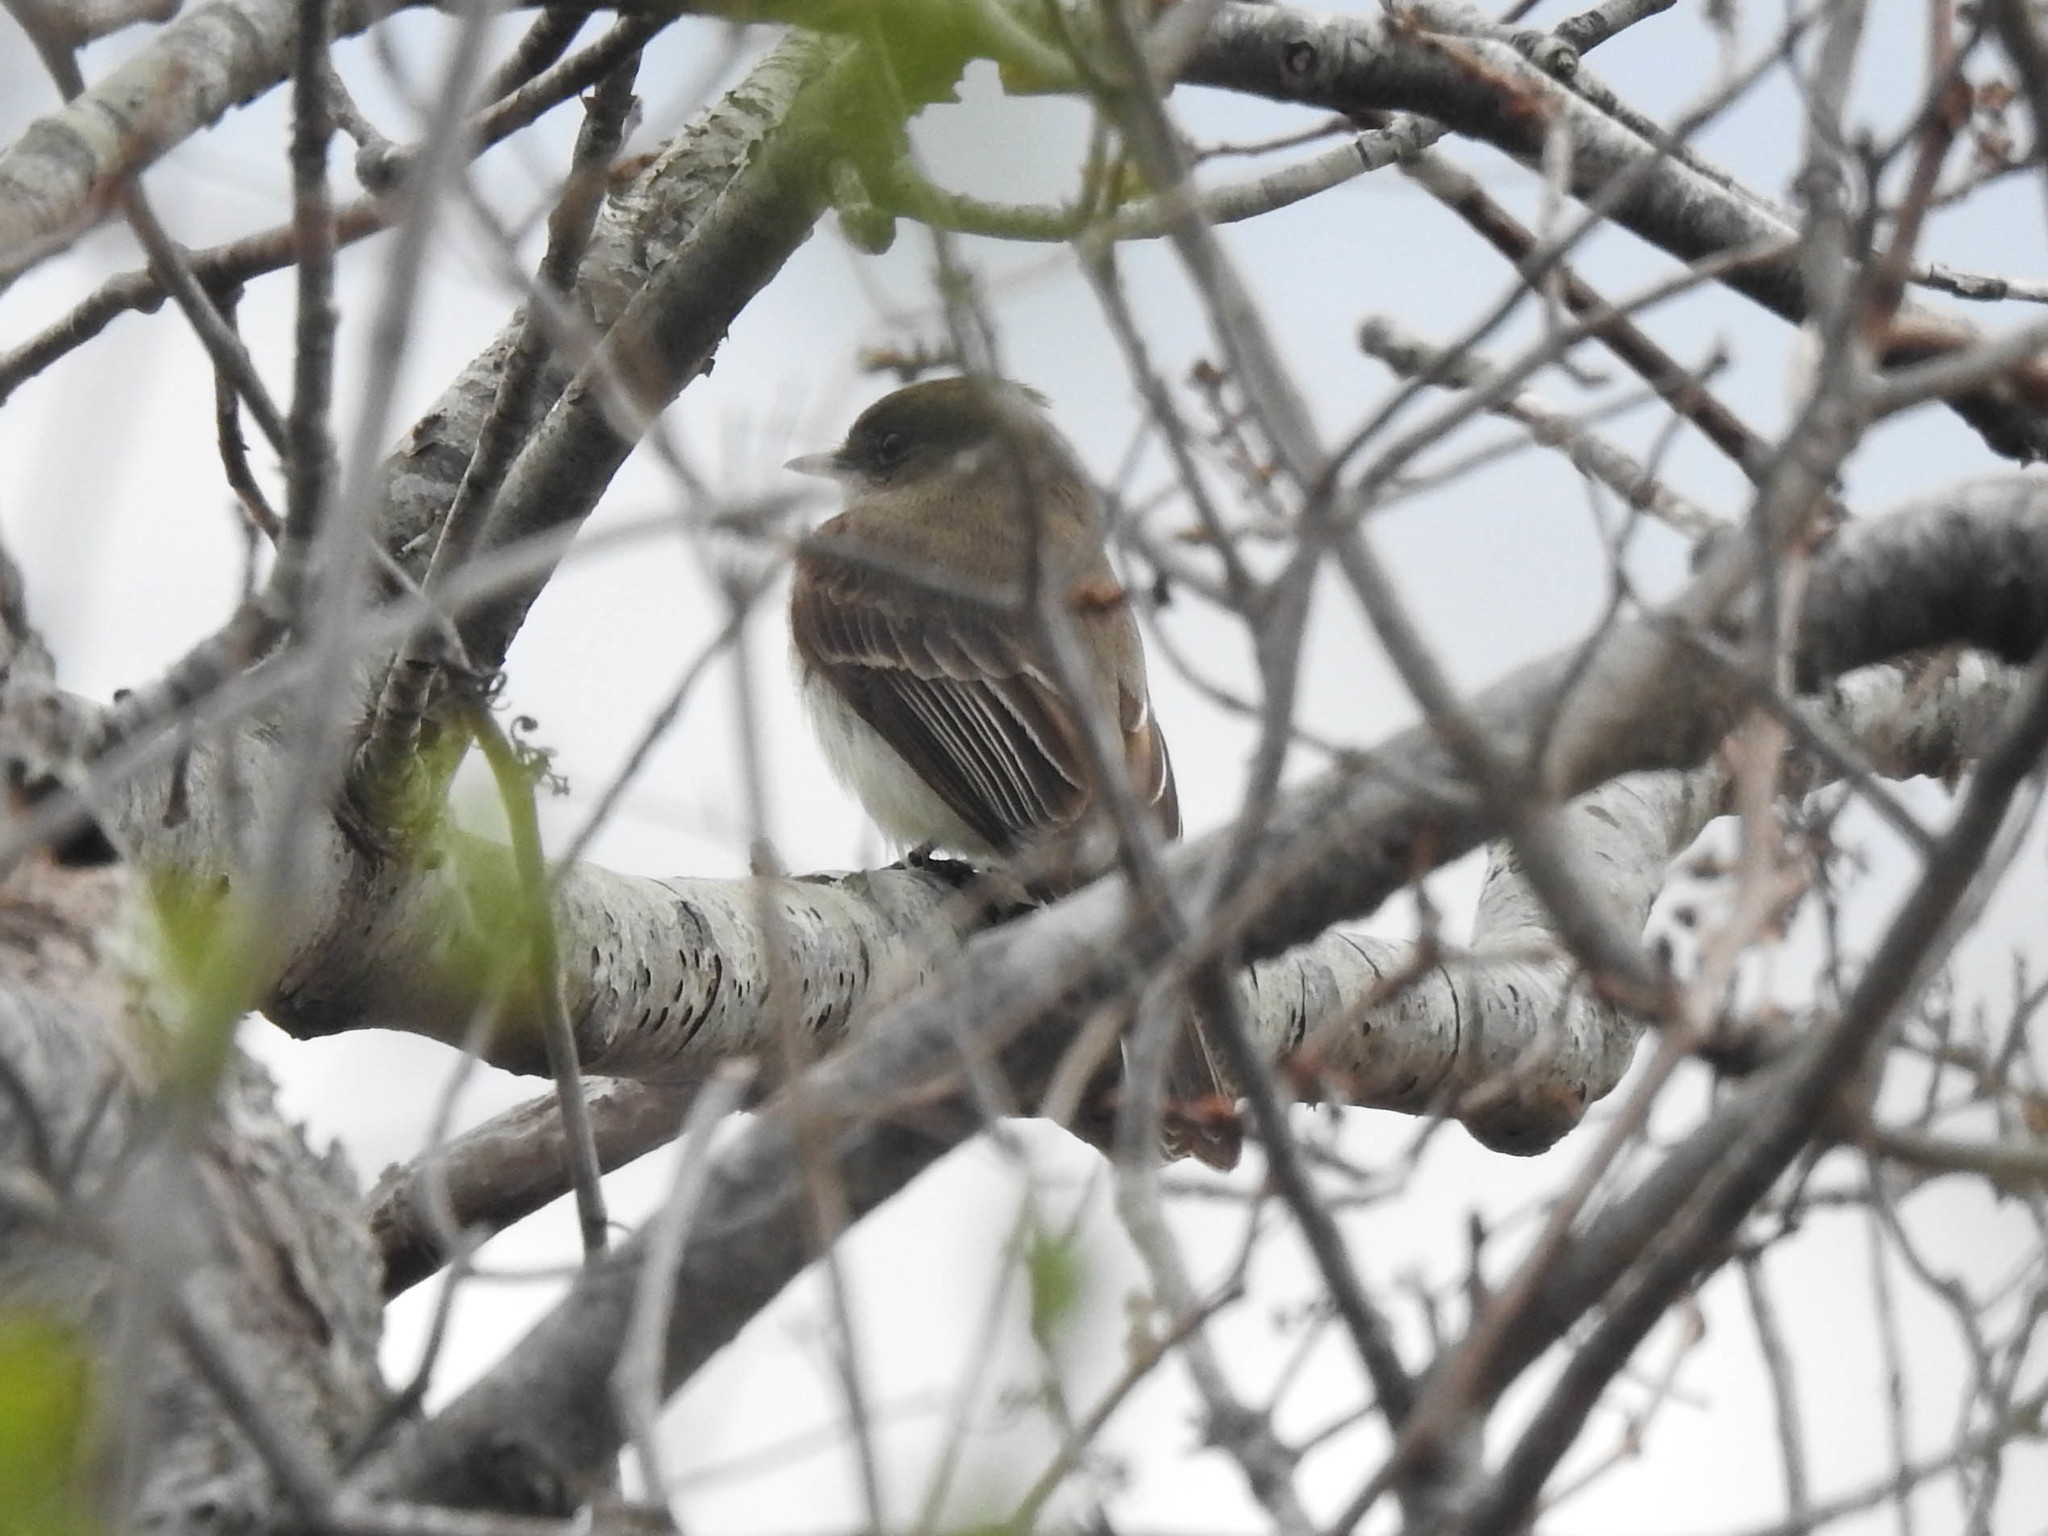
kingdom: Animalia
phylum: Chordata
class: Aves
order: Passeriformes
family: Tyrannidae
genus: Sayornis
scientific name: Sayornis phoebe
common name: Eastern phoebe
